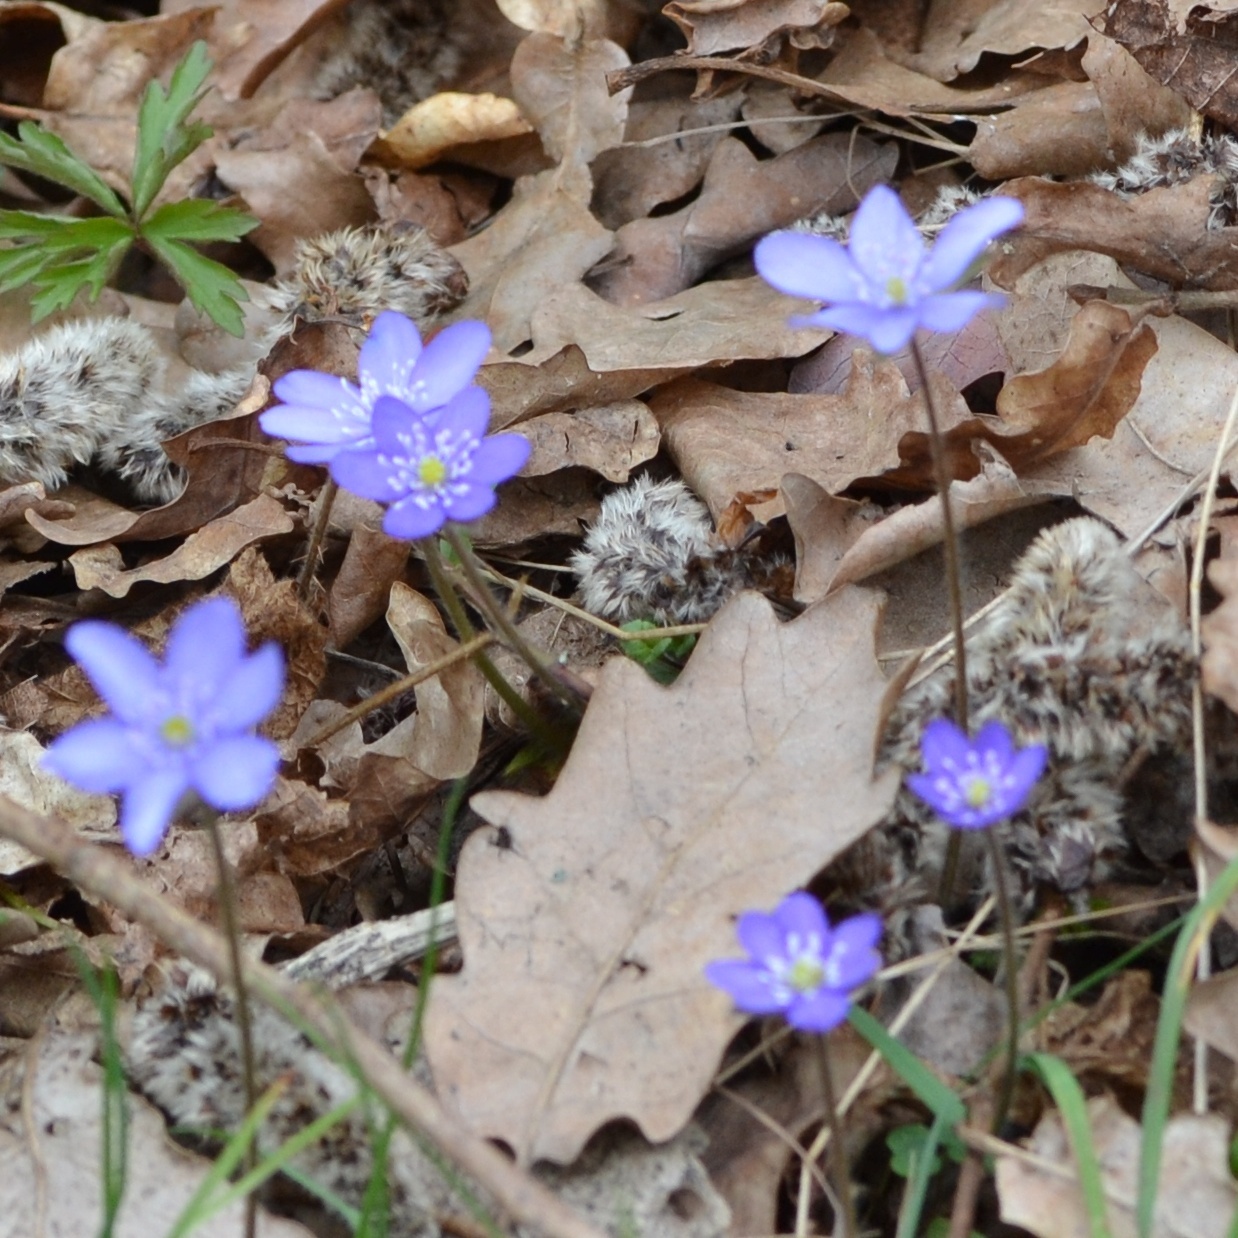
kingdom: Plantae
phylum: Tracheophyta
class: Magnoliopsida
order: Ranunculales
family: Ranunculaceae
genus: Hepatica
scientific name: Hepatica nobilis
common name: Liverleaf
